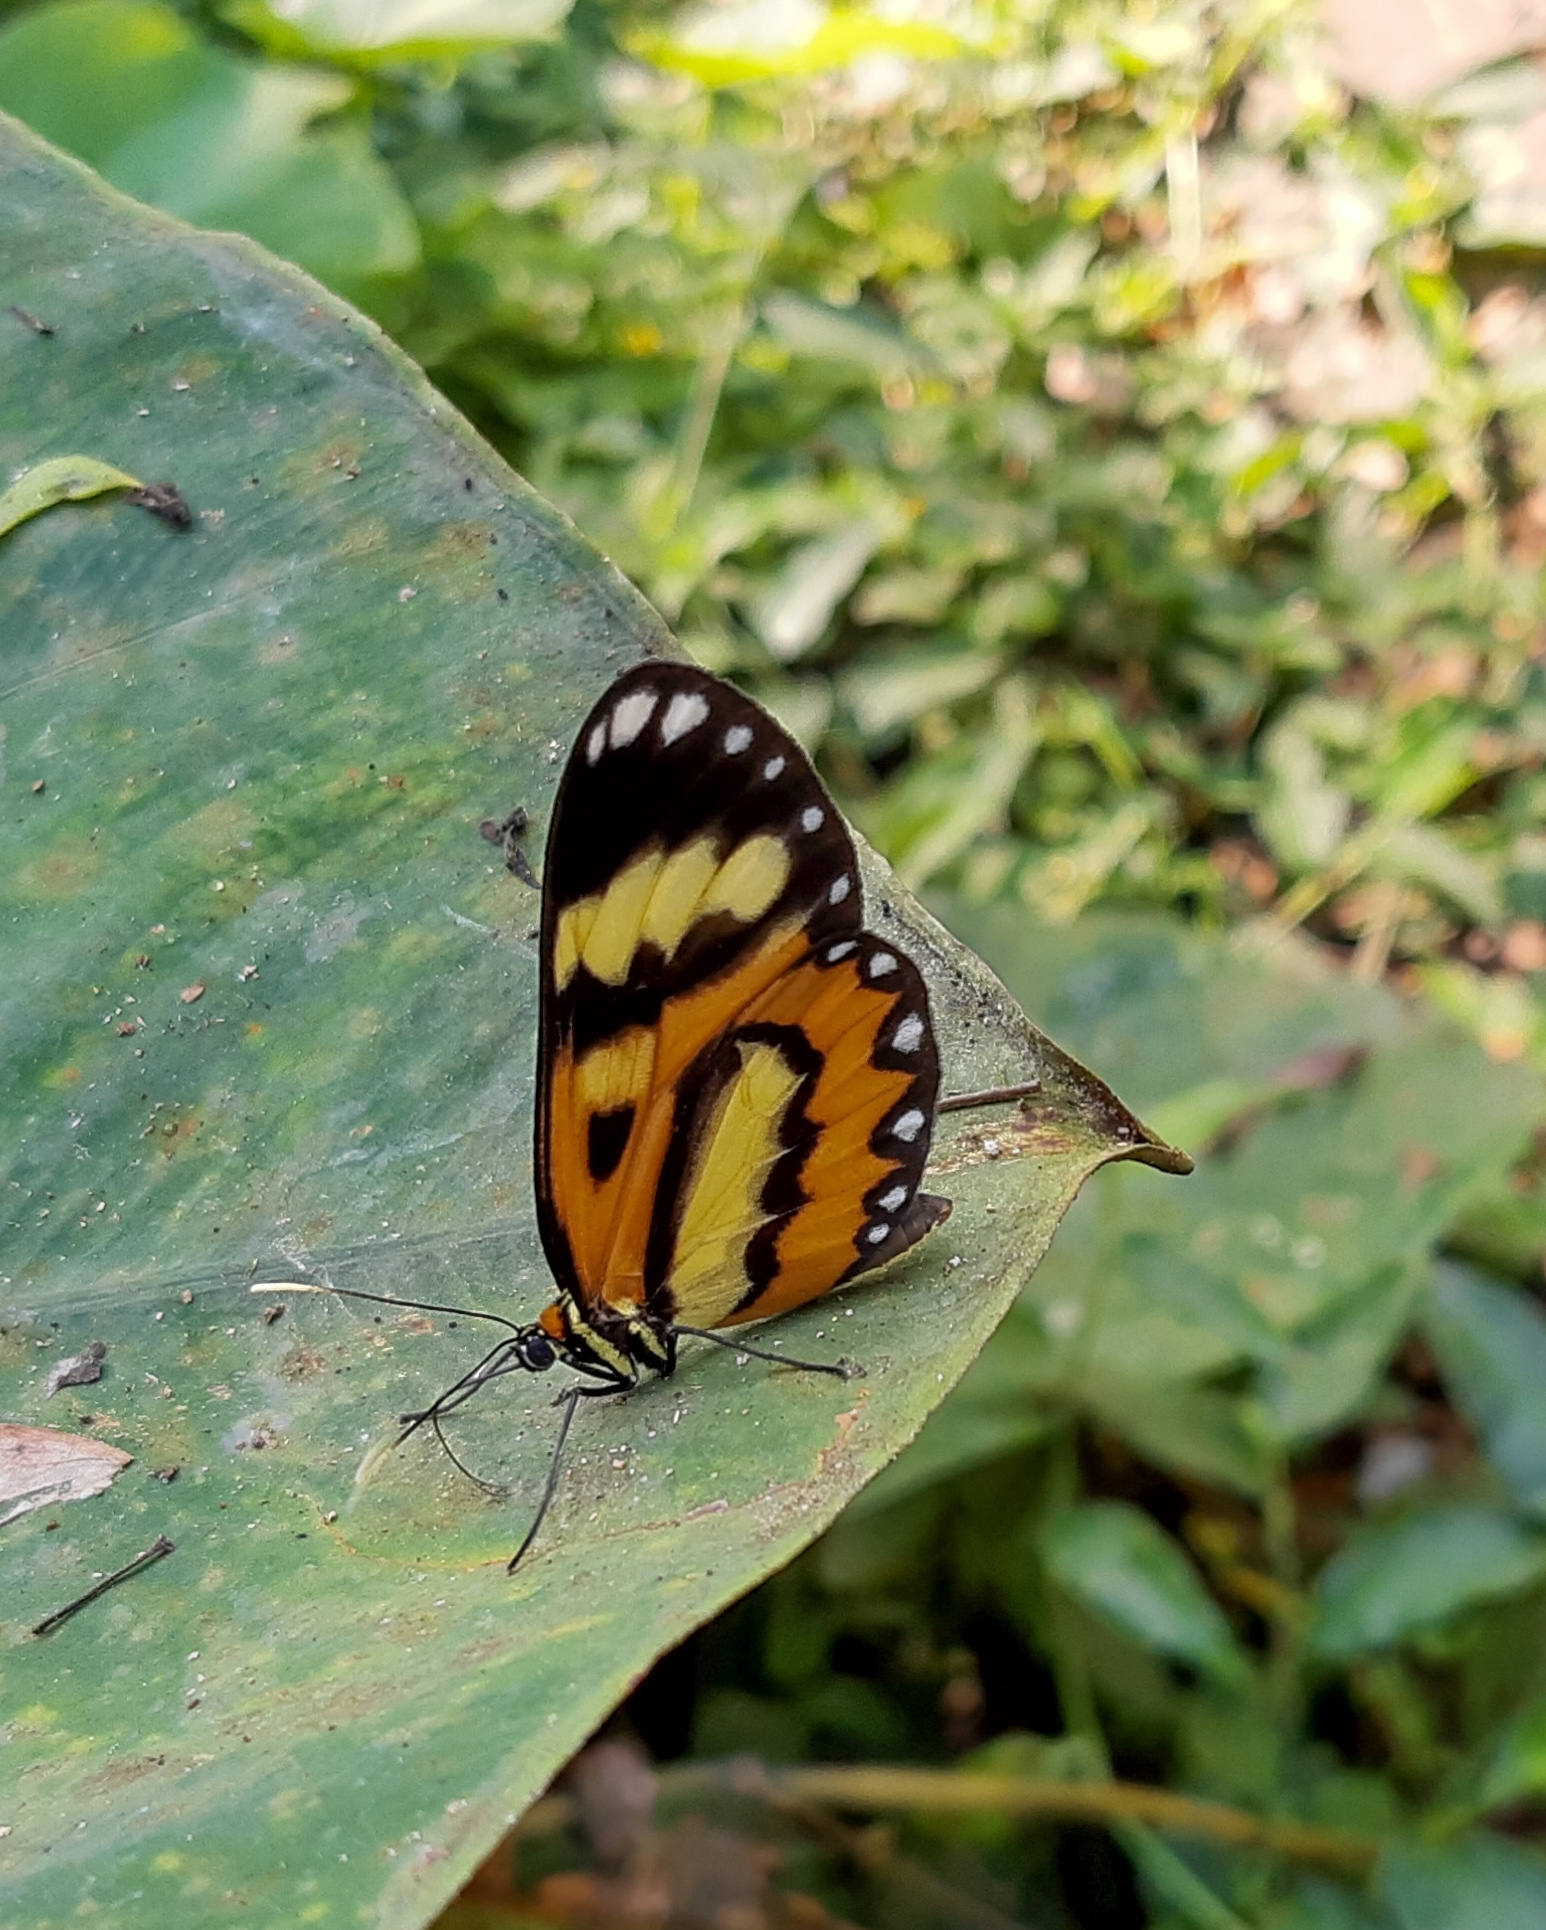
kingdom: Animalia
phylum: Arthropoda
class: Insecta
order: Lepidoptera
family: Nymphalidae
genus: Placidina
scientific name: Placidina euryanassa
